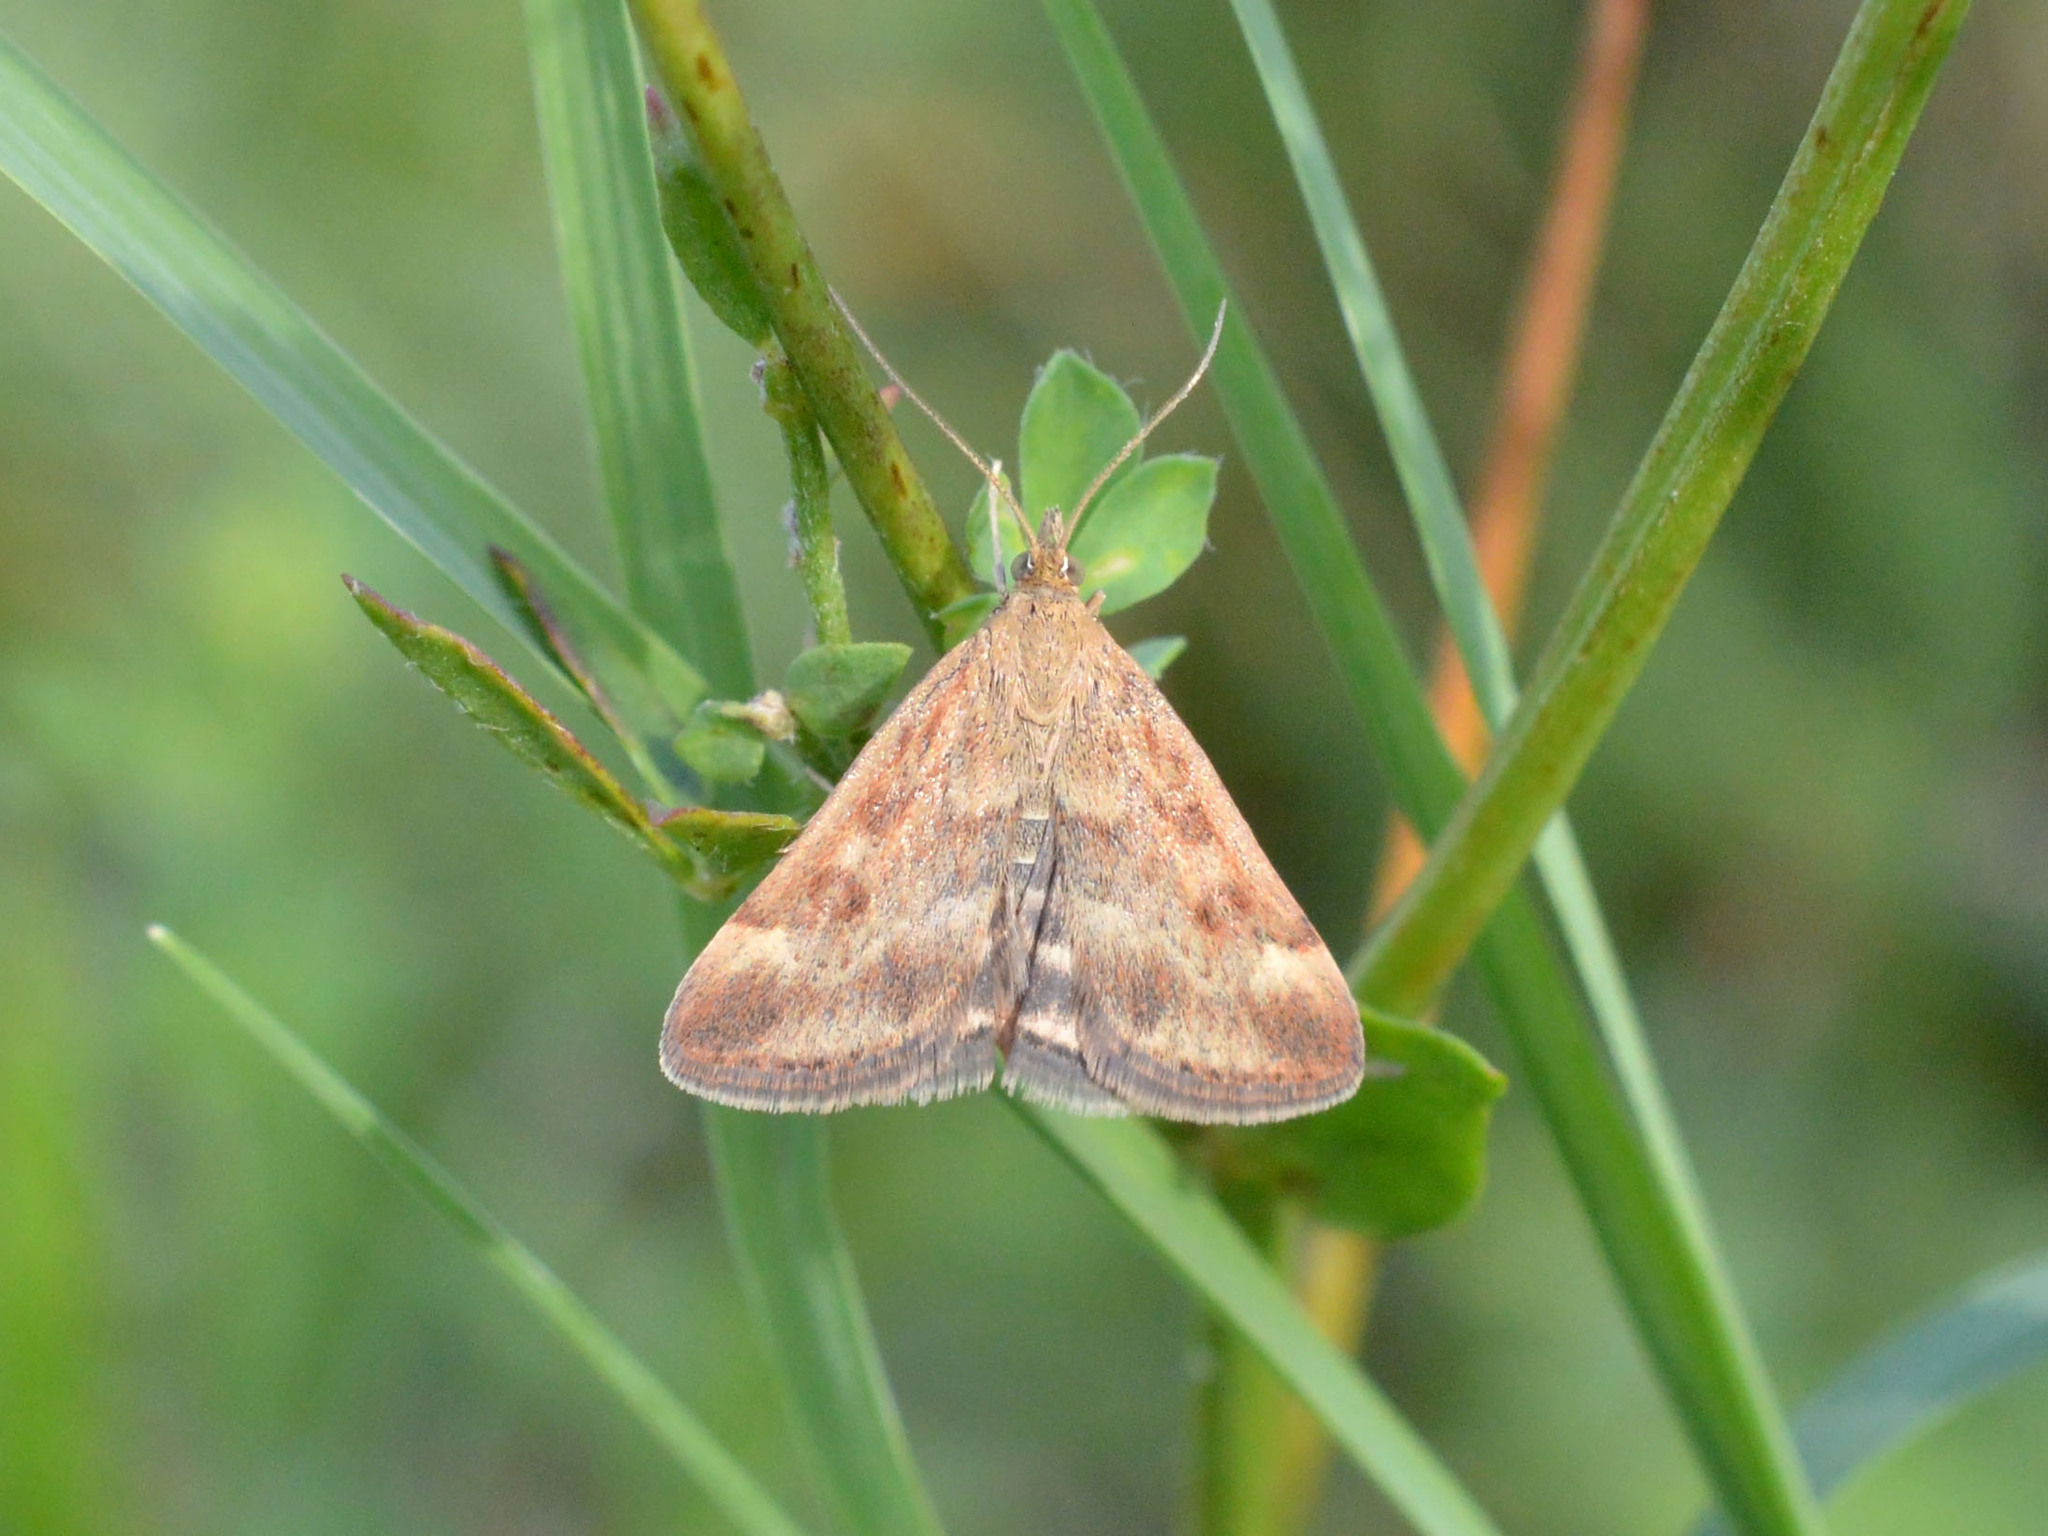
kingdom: Animalia
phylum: Arthropoda
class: Insecta
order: Lepidoptera
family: Crambidae
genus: Pyrausta
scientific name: Pyrausta despicata
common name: Straw-barred pearl
